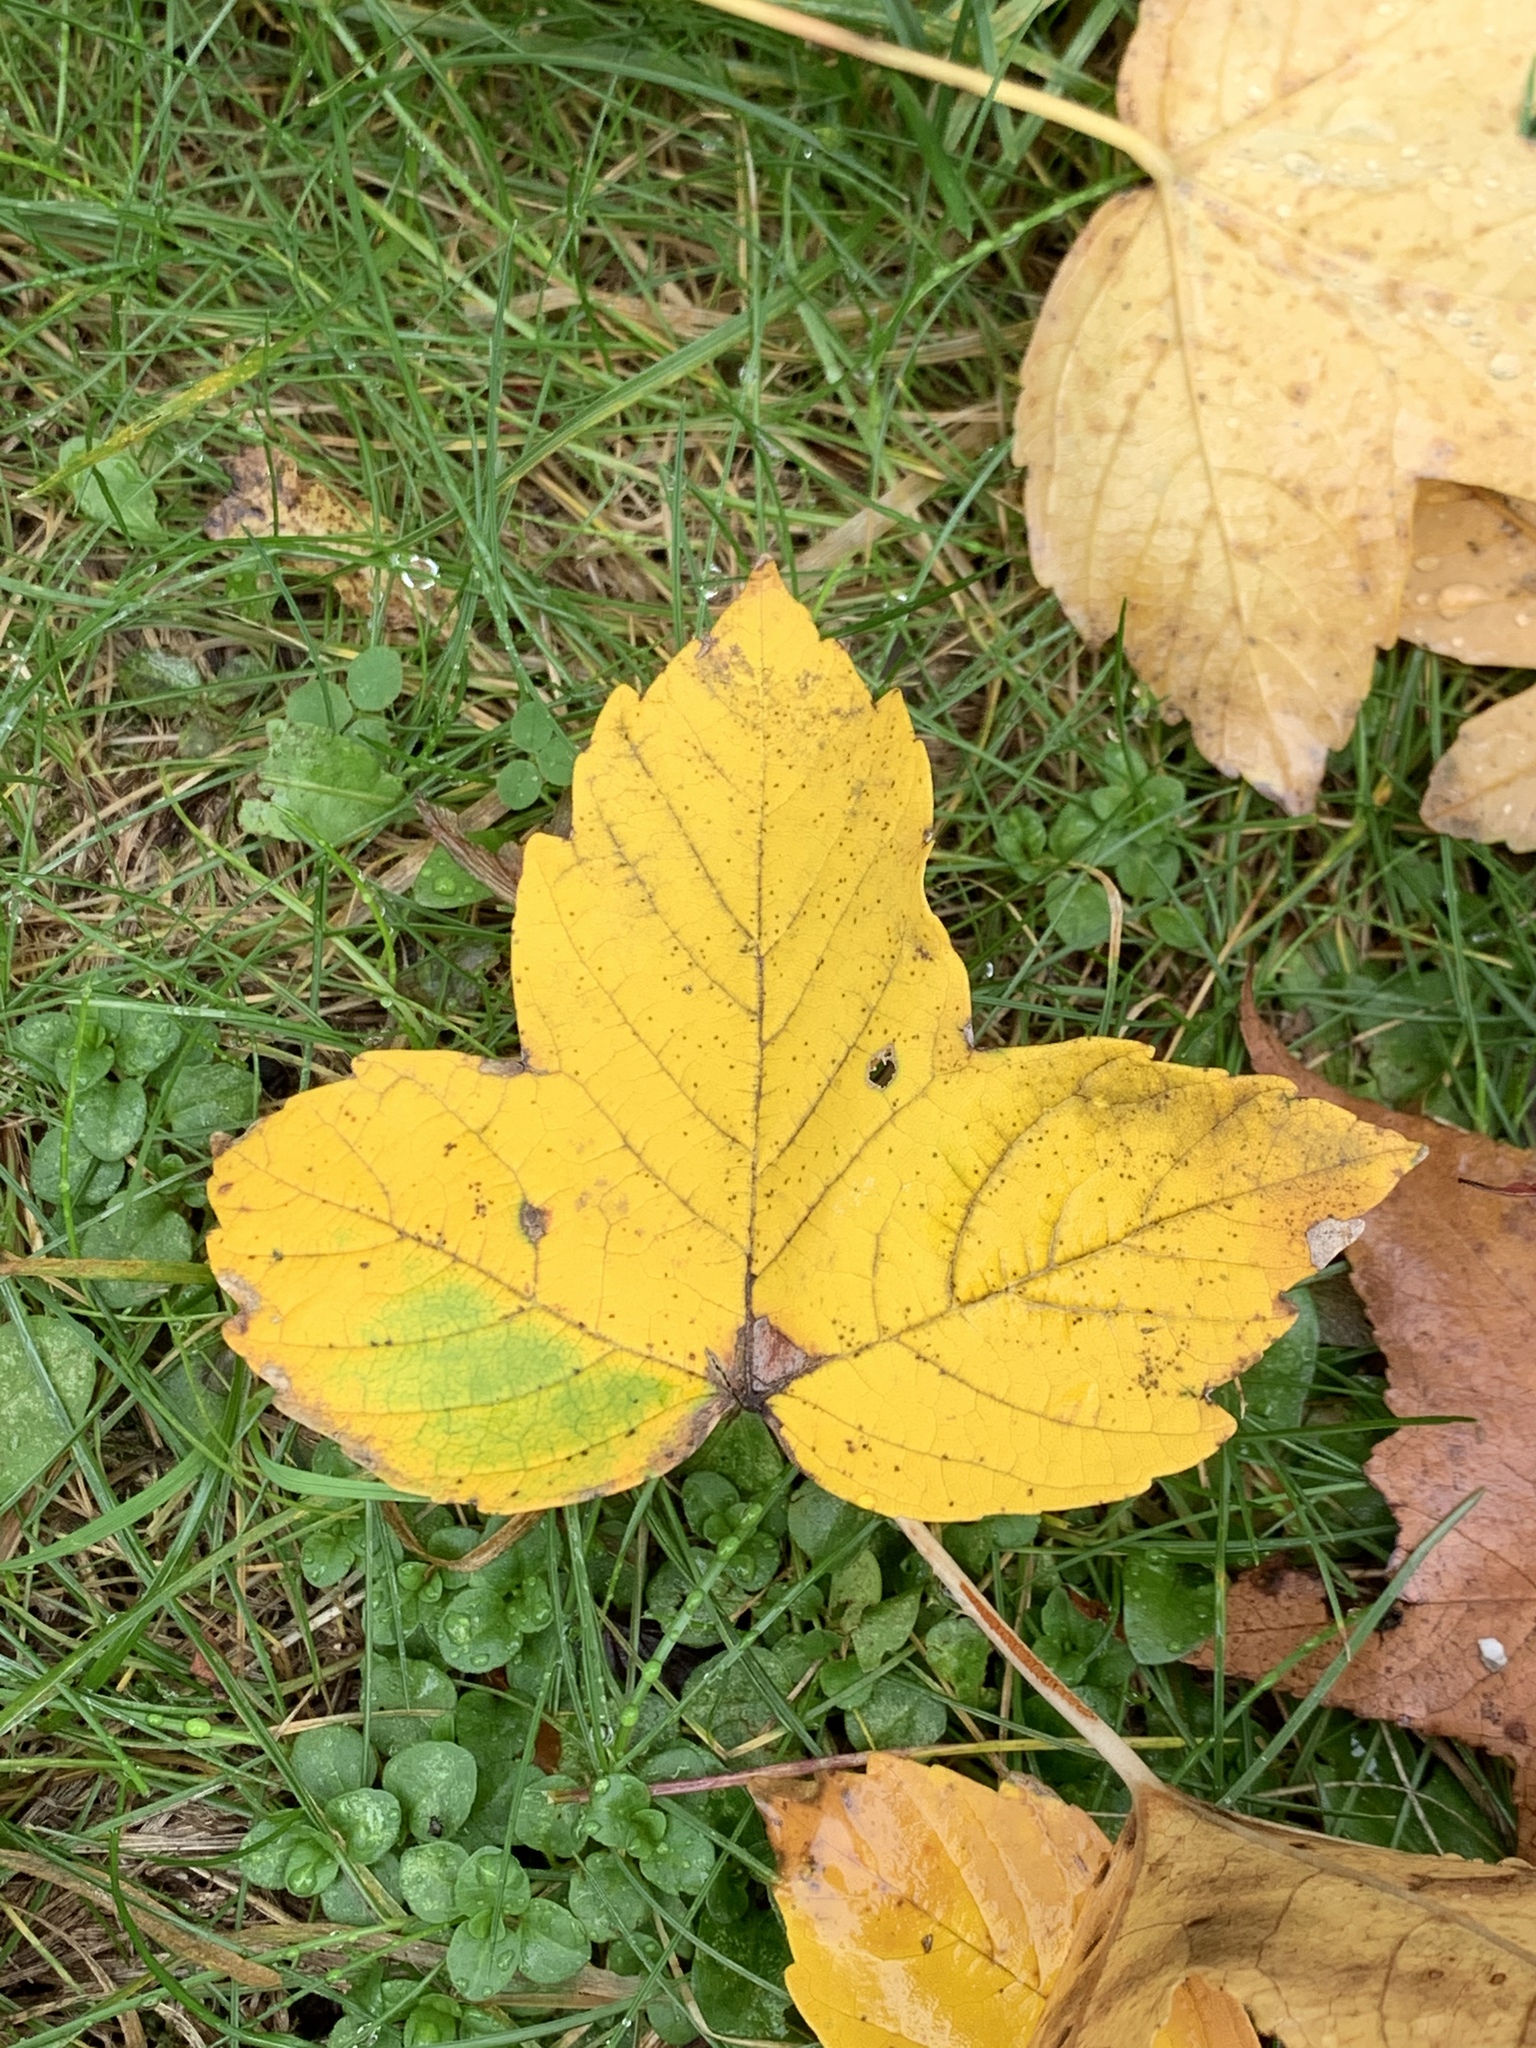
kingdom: Plantae
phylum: Tracheophyta
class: Magnoliopsida
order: Sapindales
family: Sapindaceae
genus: Acer
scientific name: Acer pseudoplatanus
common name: Sycamore
